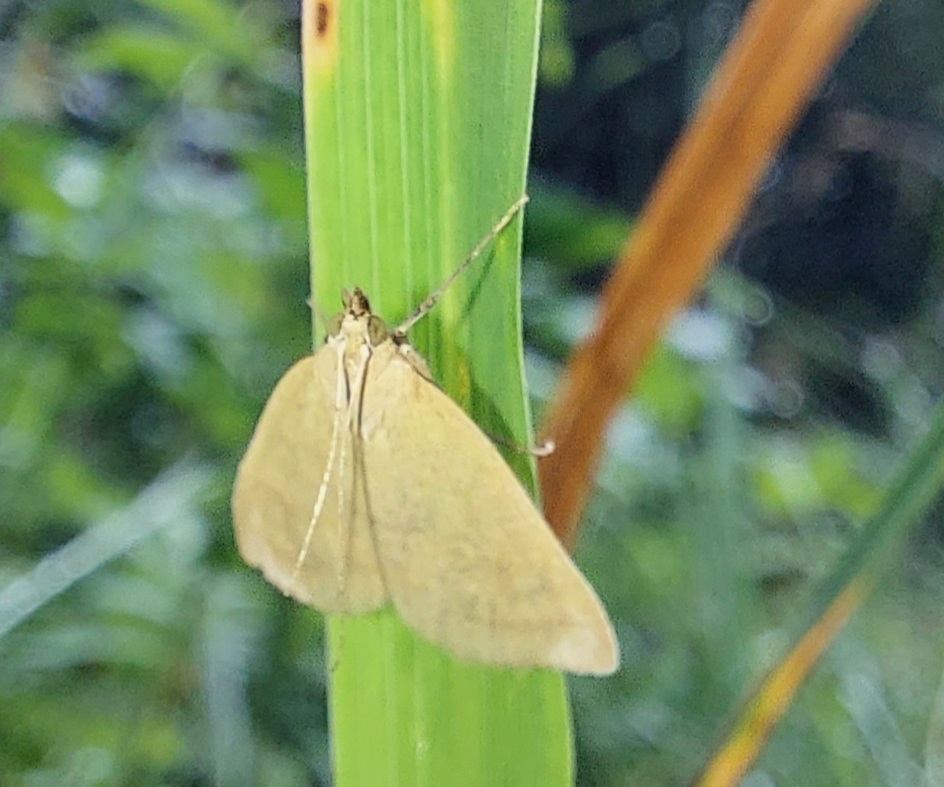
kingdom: Animalia
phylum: Arthropoda
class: Insecta
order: Lepidoptera
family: Crambidae
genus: Sitochroa
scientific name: Sitochroa verticalis
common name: Lesser pearl
